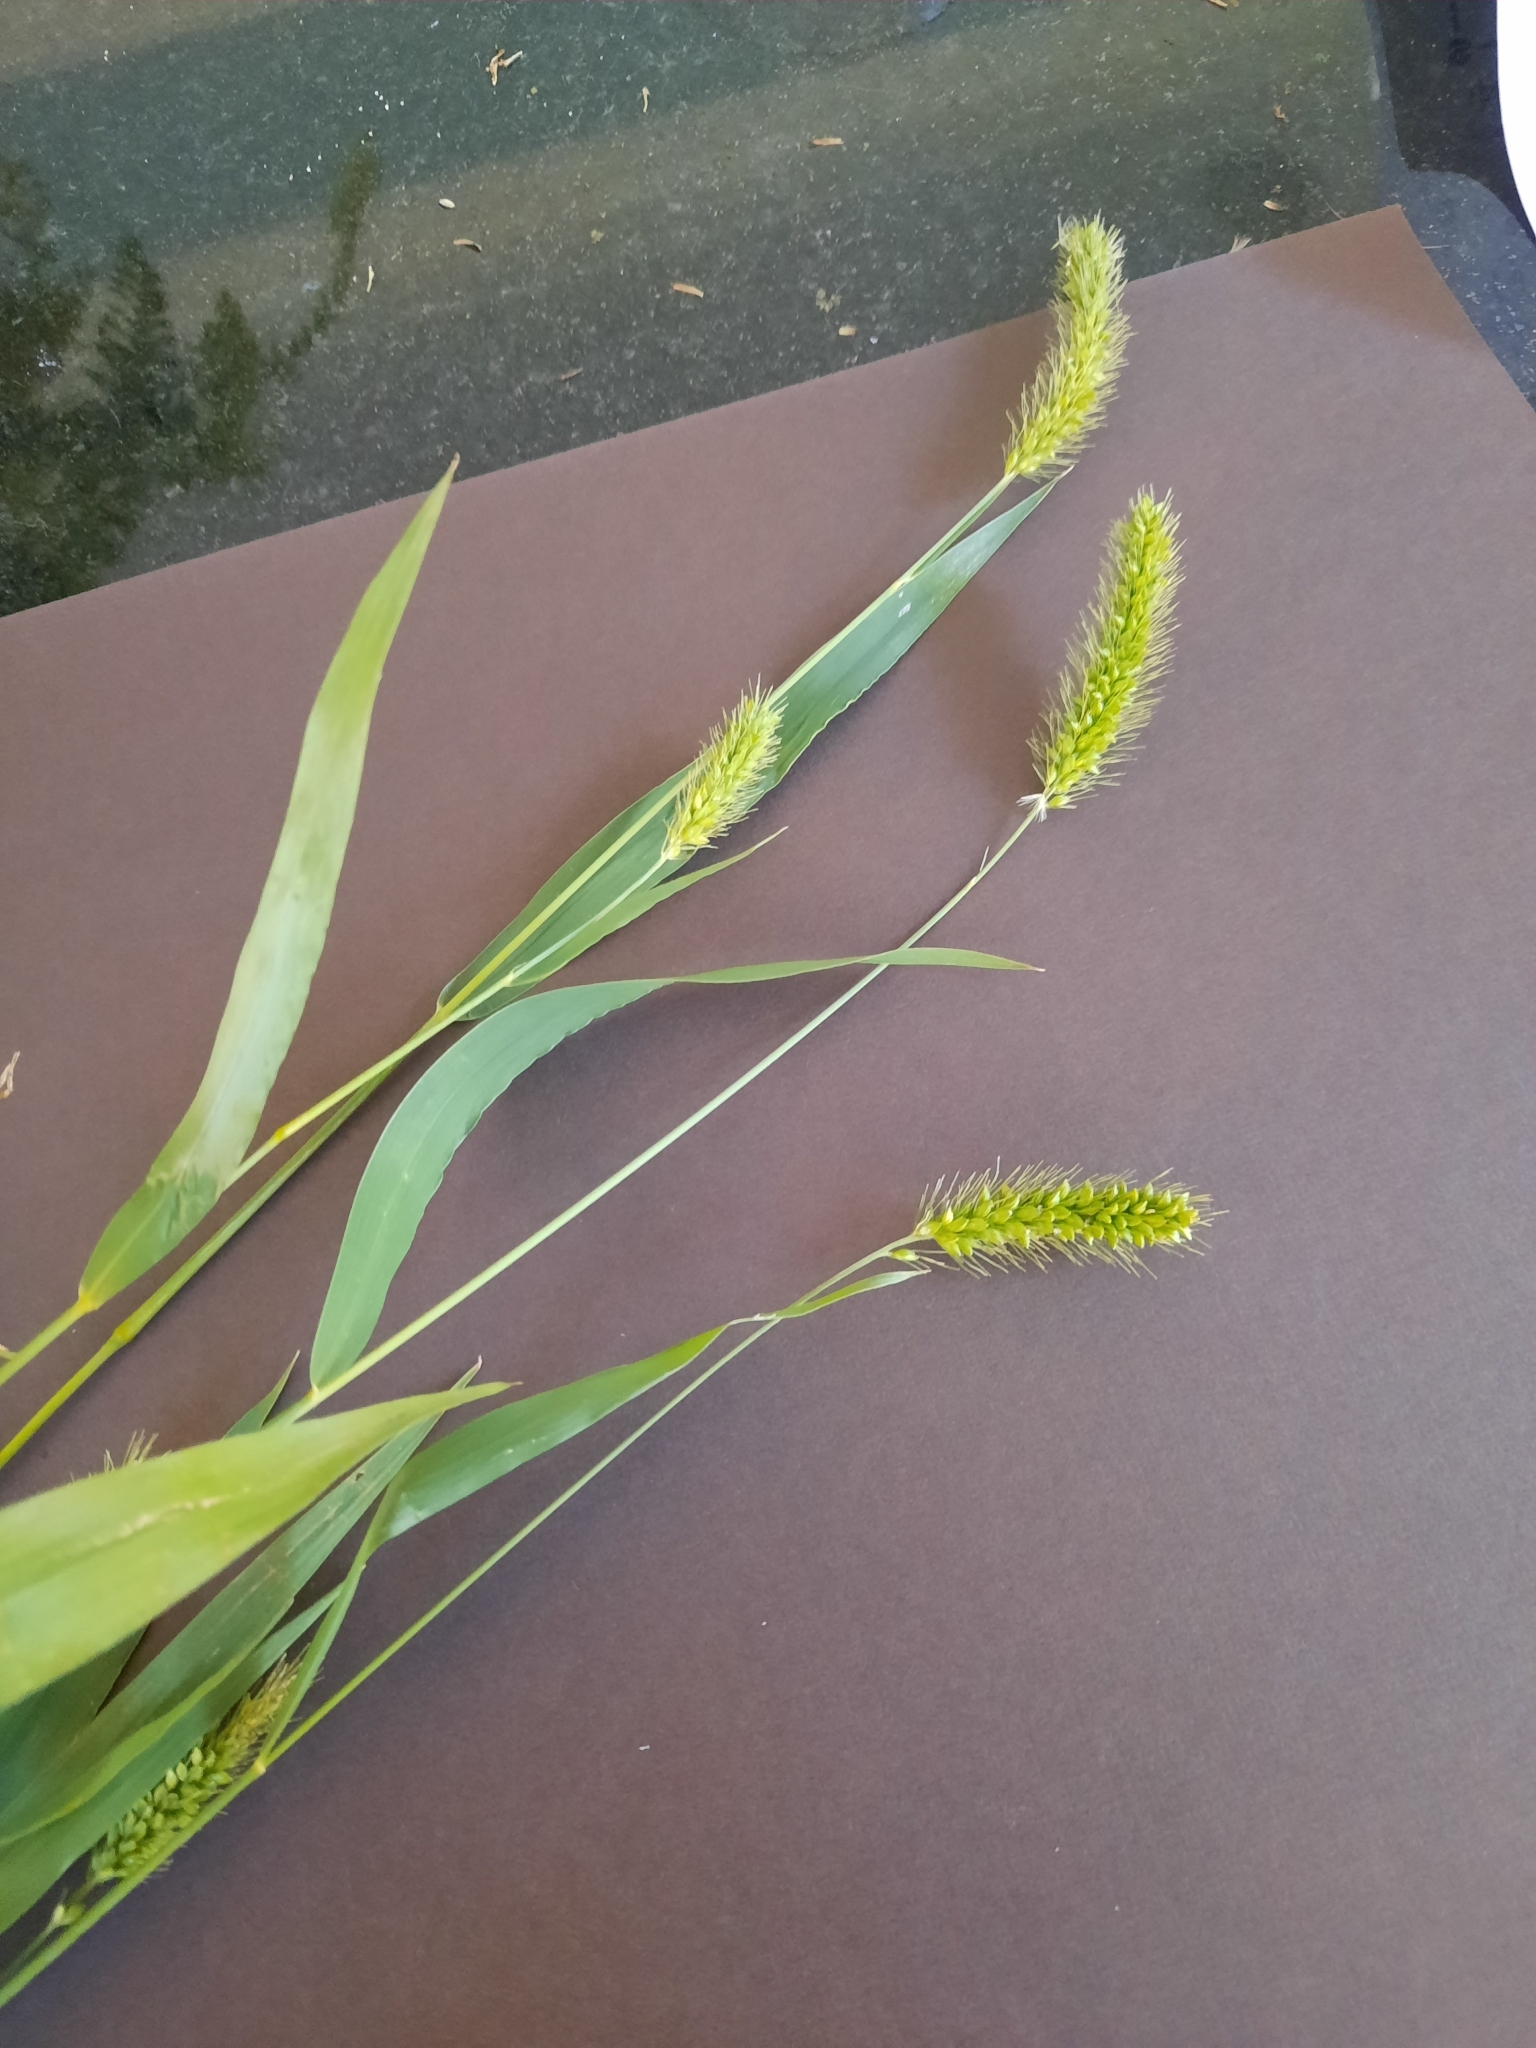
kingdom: Plantae
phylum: Tracheophyta
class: Liliopsida
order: Poales
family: Poaceae
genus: Setaria
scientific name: Setaria viridis
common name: Green bristlegrass
